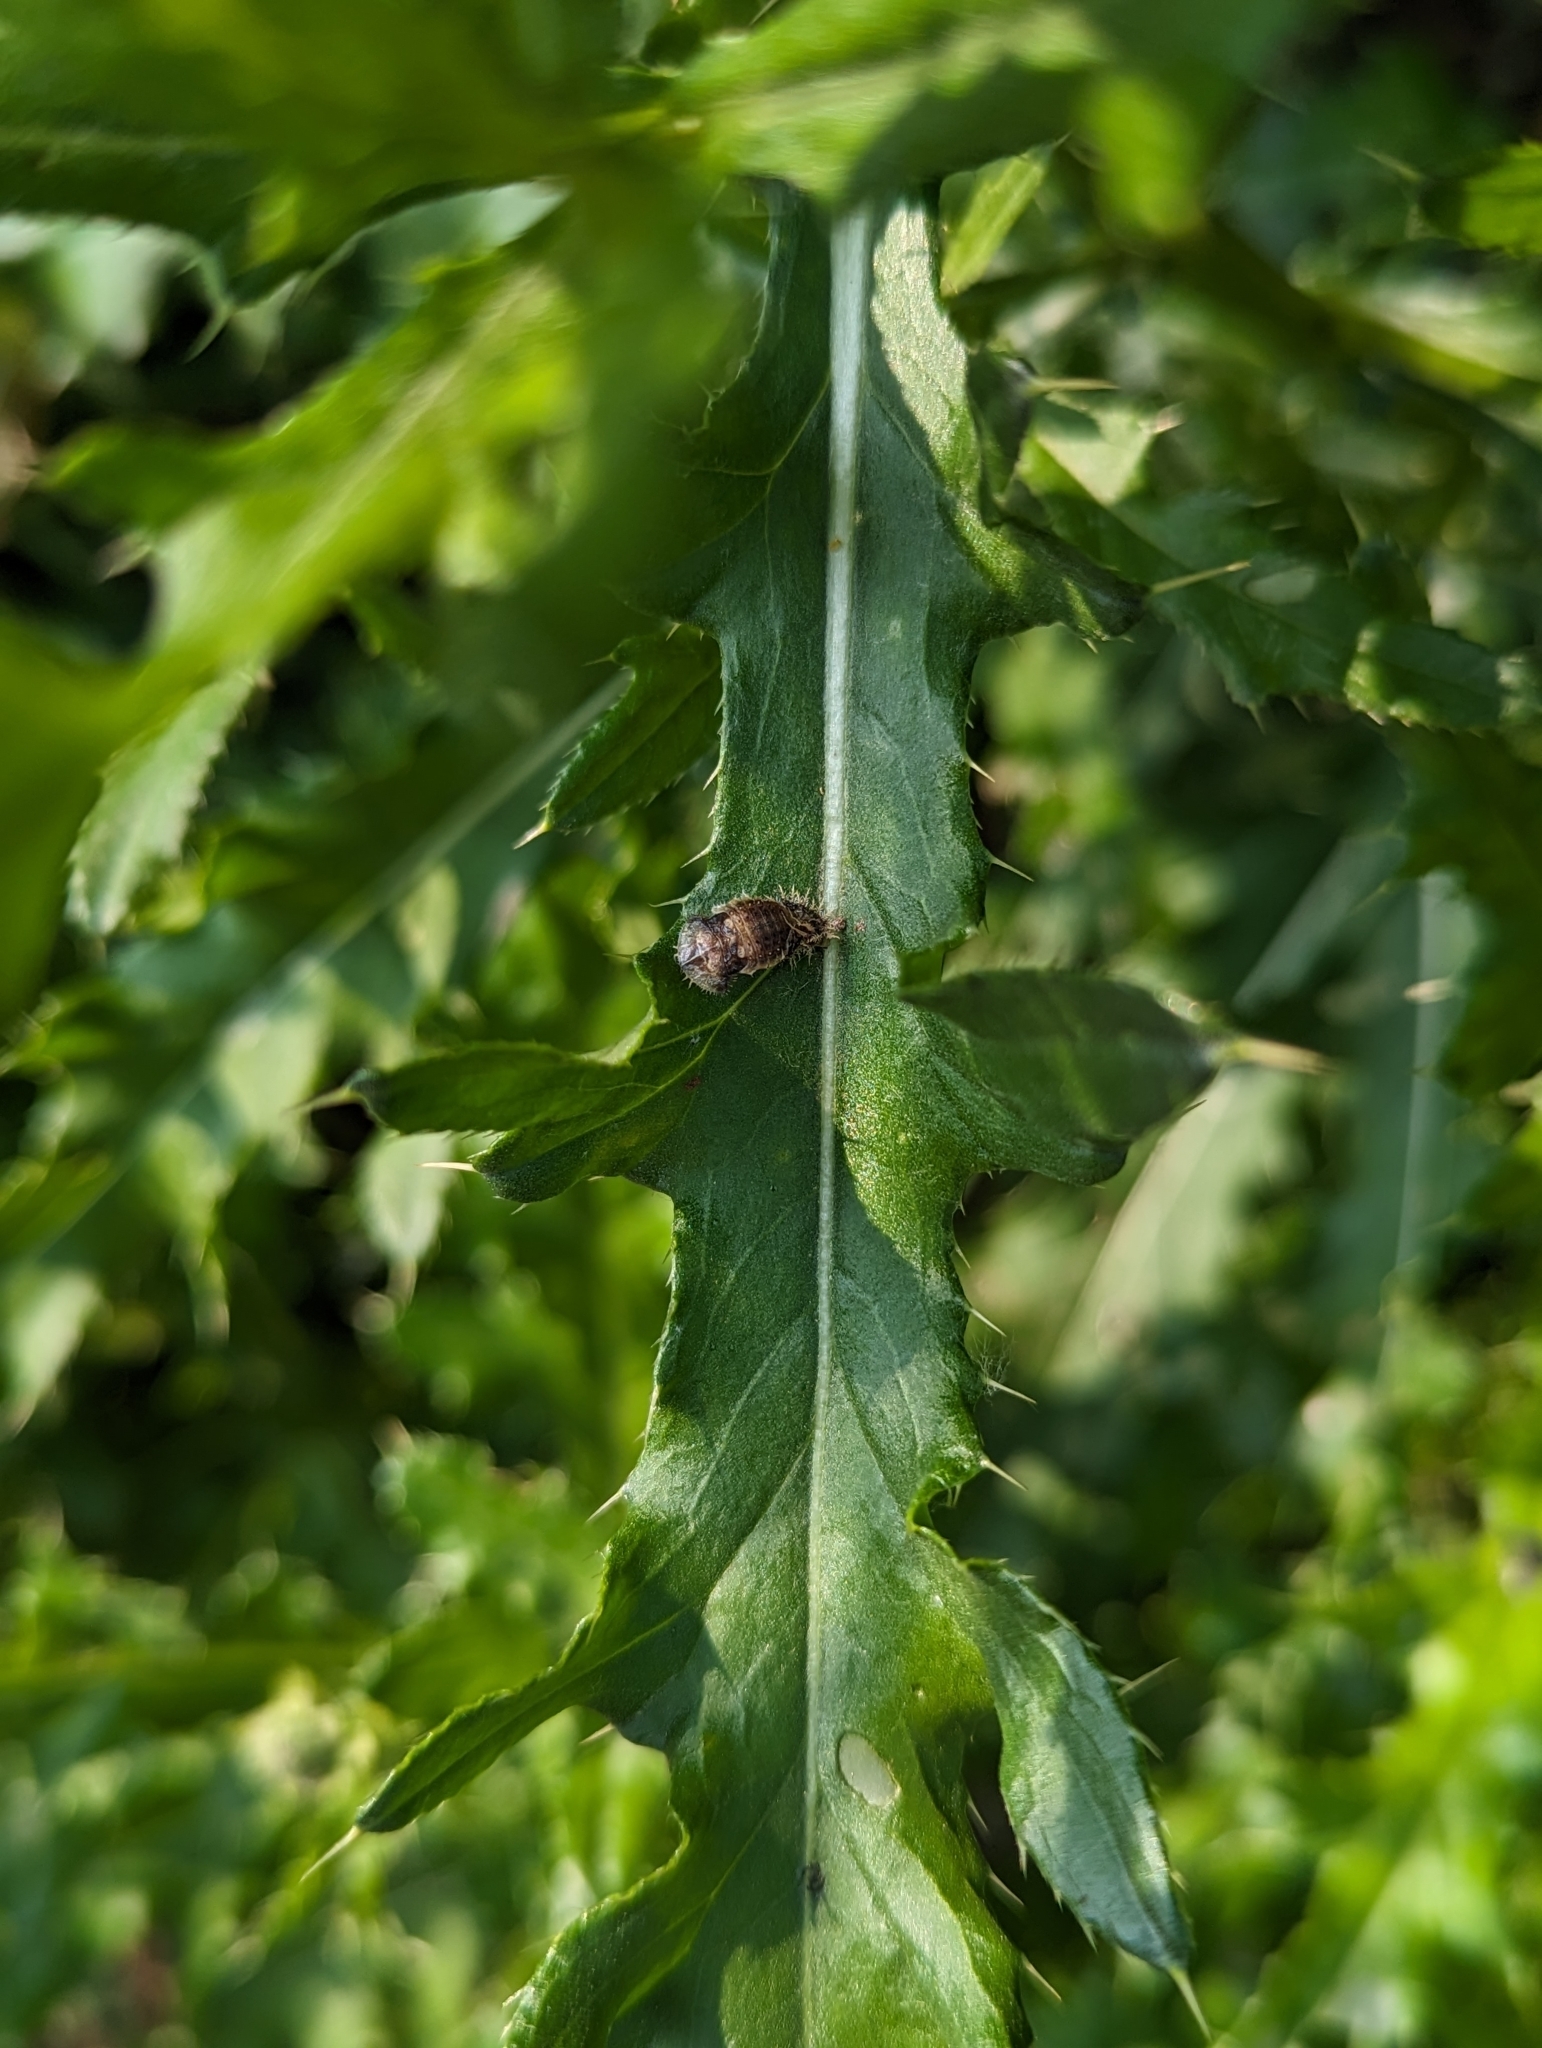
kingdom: Animalia
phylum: Arthropoda
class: Insecta
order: Coleoptera
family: Chrysomelidae
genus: Cassida
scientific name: Cassida rubiginosa
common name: Thistle tortoise beetle
